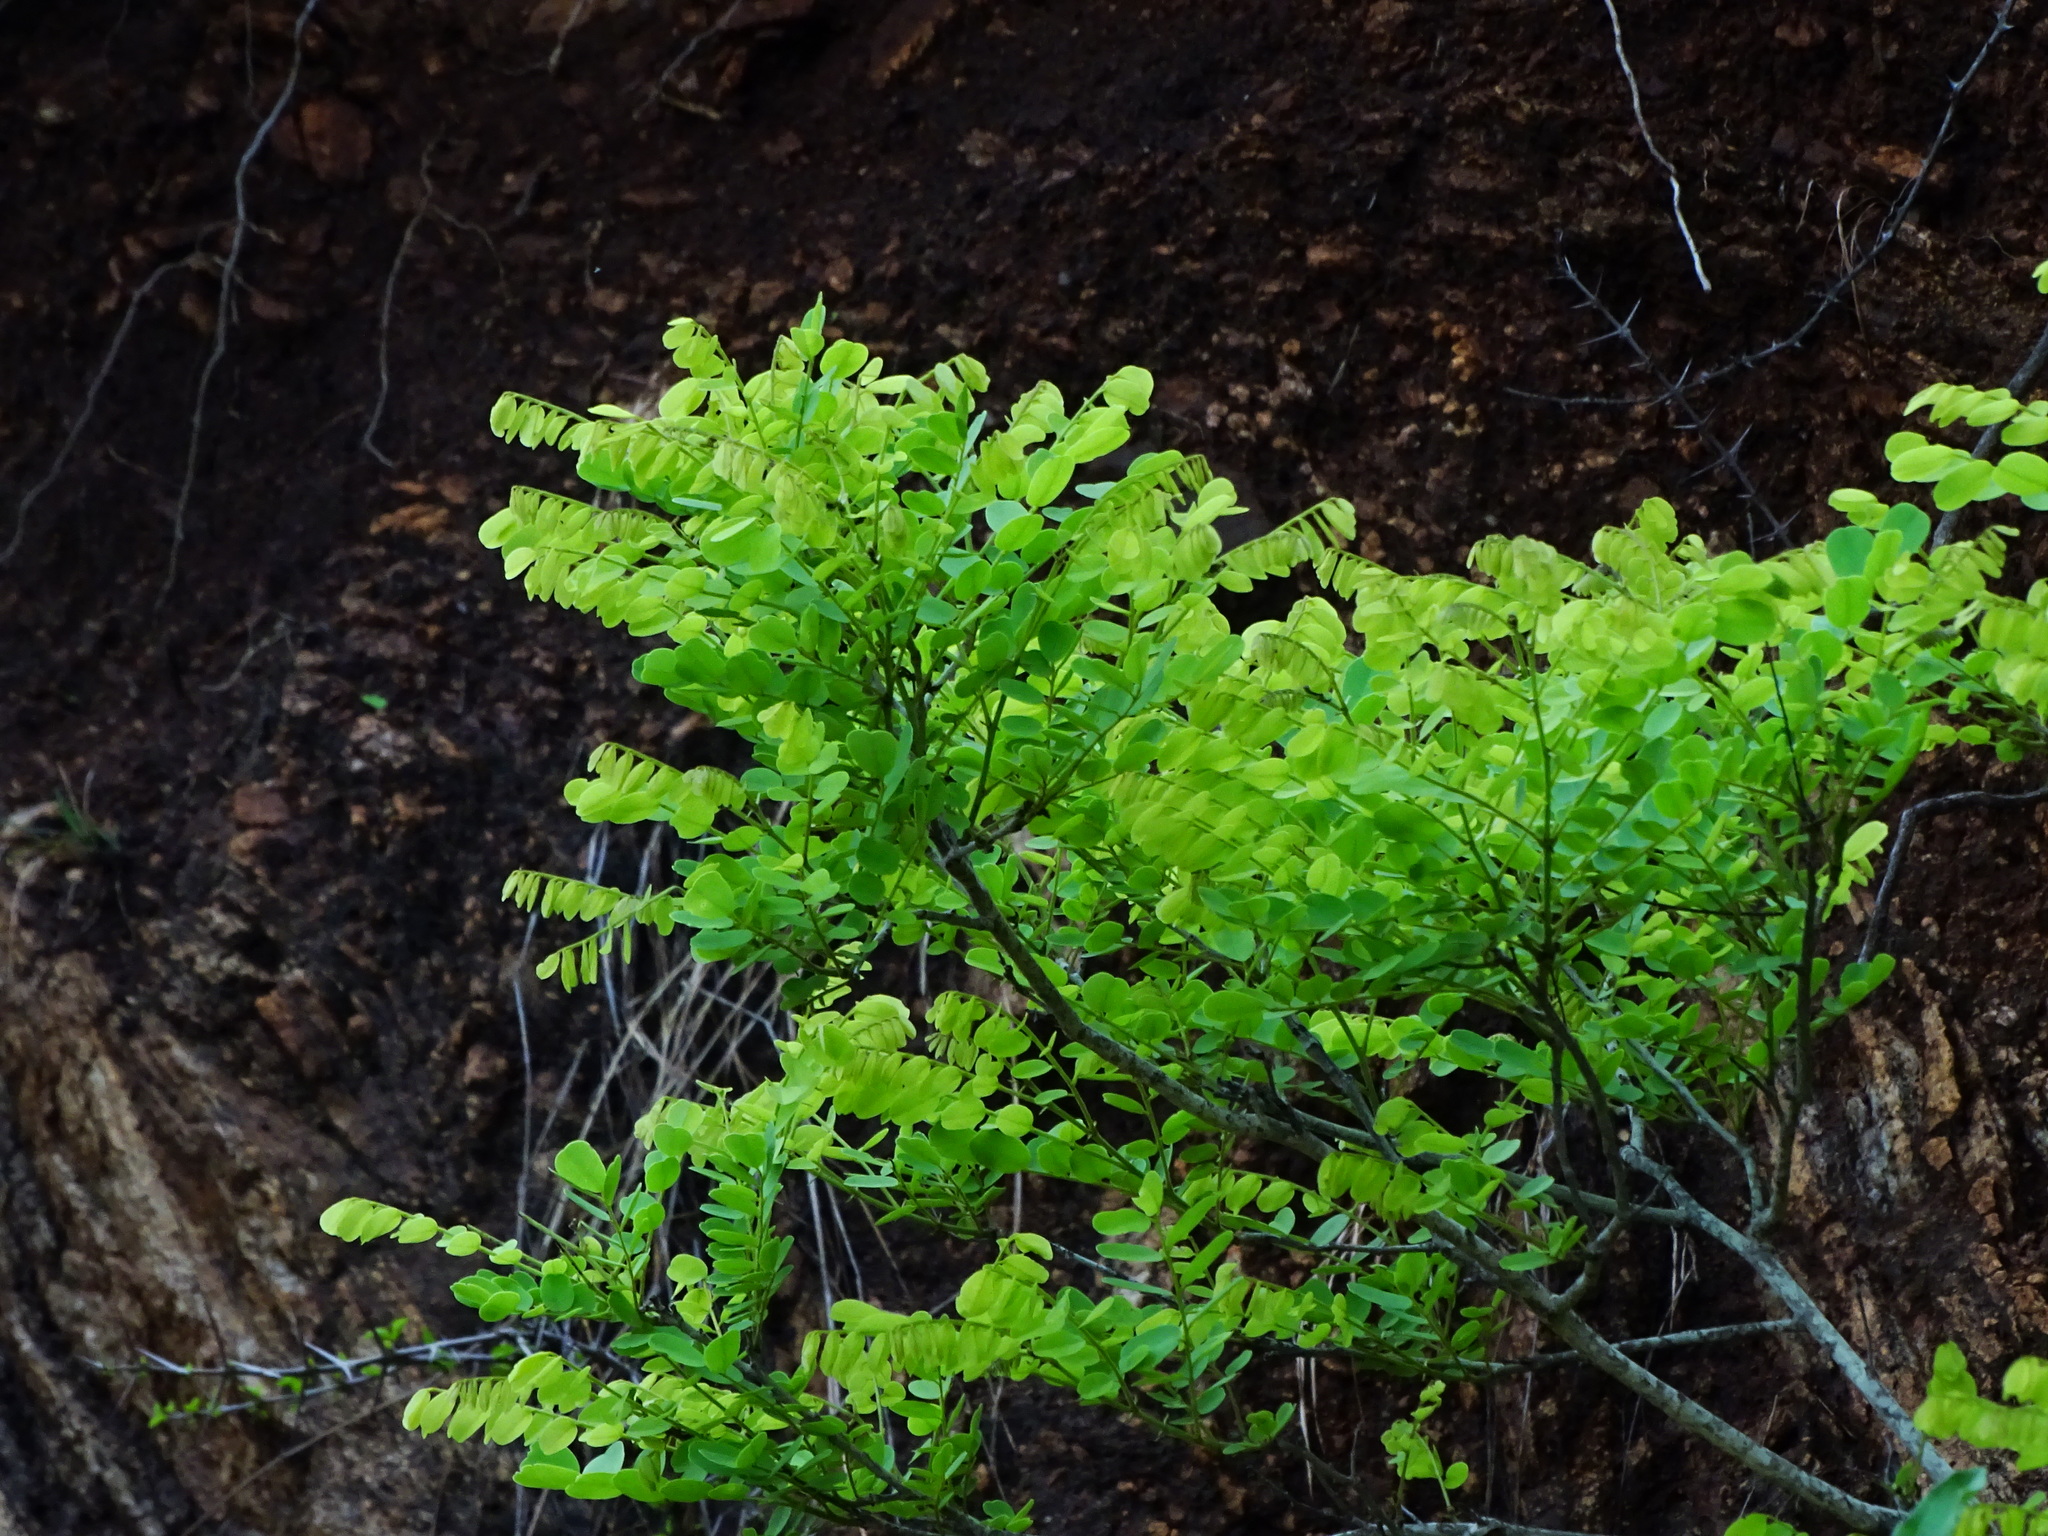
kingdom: Plantae
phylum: Tracheophyta
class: Magnoliopsida
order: Malpighiales
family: Phyllanthaceae
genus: Phyllanthus
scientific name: Phyllanthus polyphyllus
